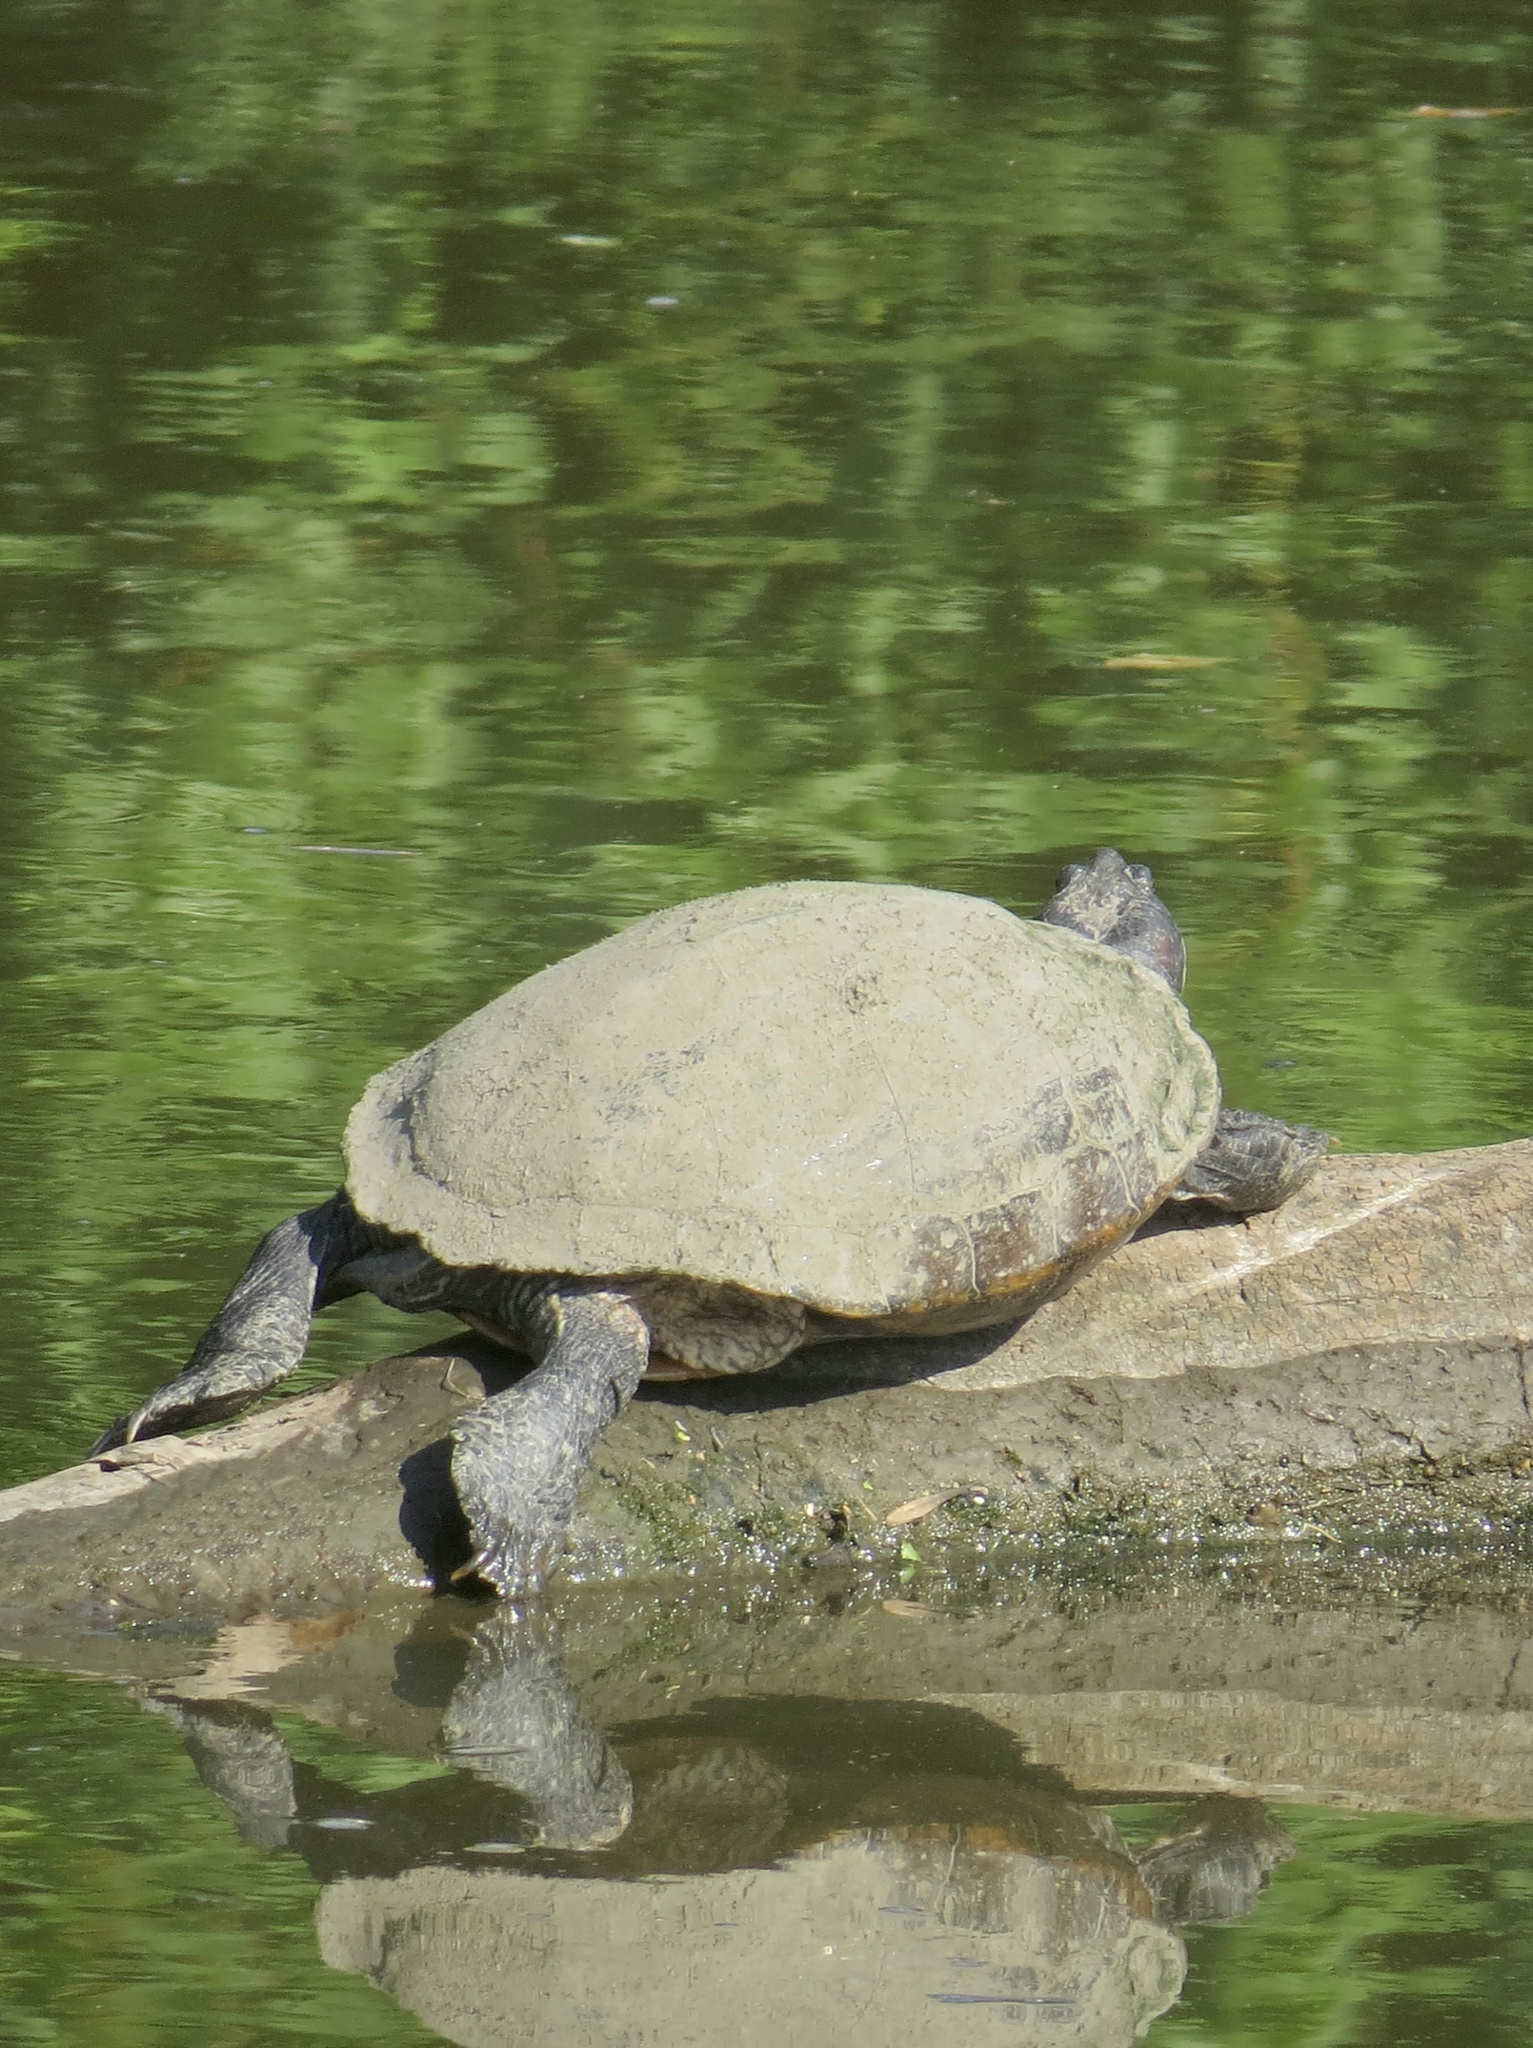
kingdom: Animalia
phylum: Chordata
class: Testudines
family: Emydidae
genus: Trachemys
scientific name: Trachemys scripta
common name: Slider
